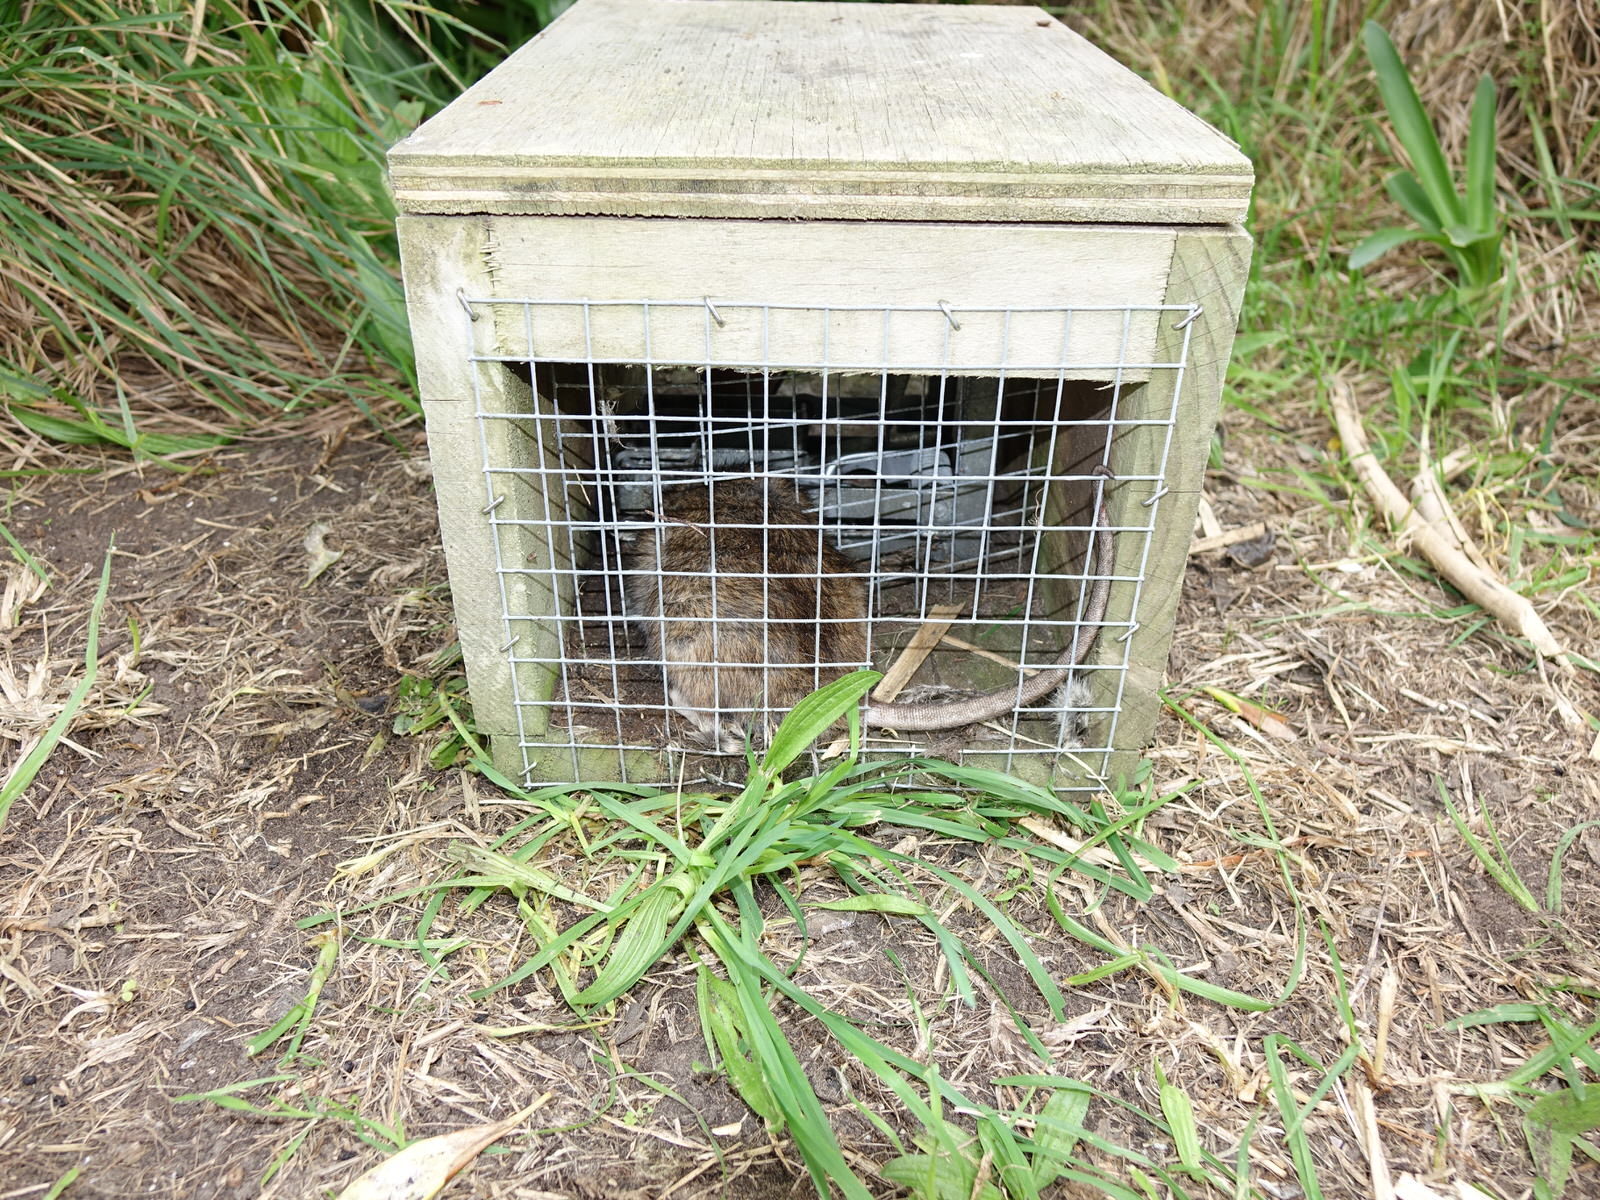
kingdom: Animalia
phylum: Chordata
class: Mammalia
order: Rodentia
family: Muridae
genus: Rattus
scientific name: Rattus norvegicus
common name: Brown rat
